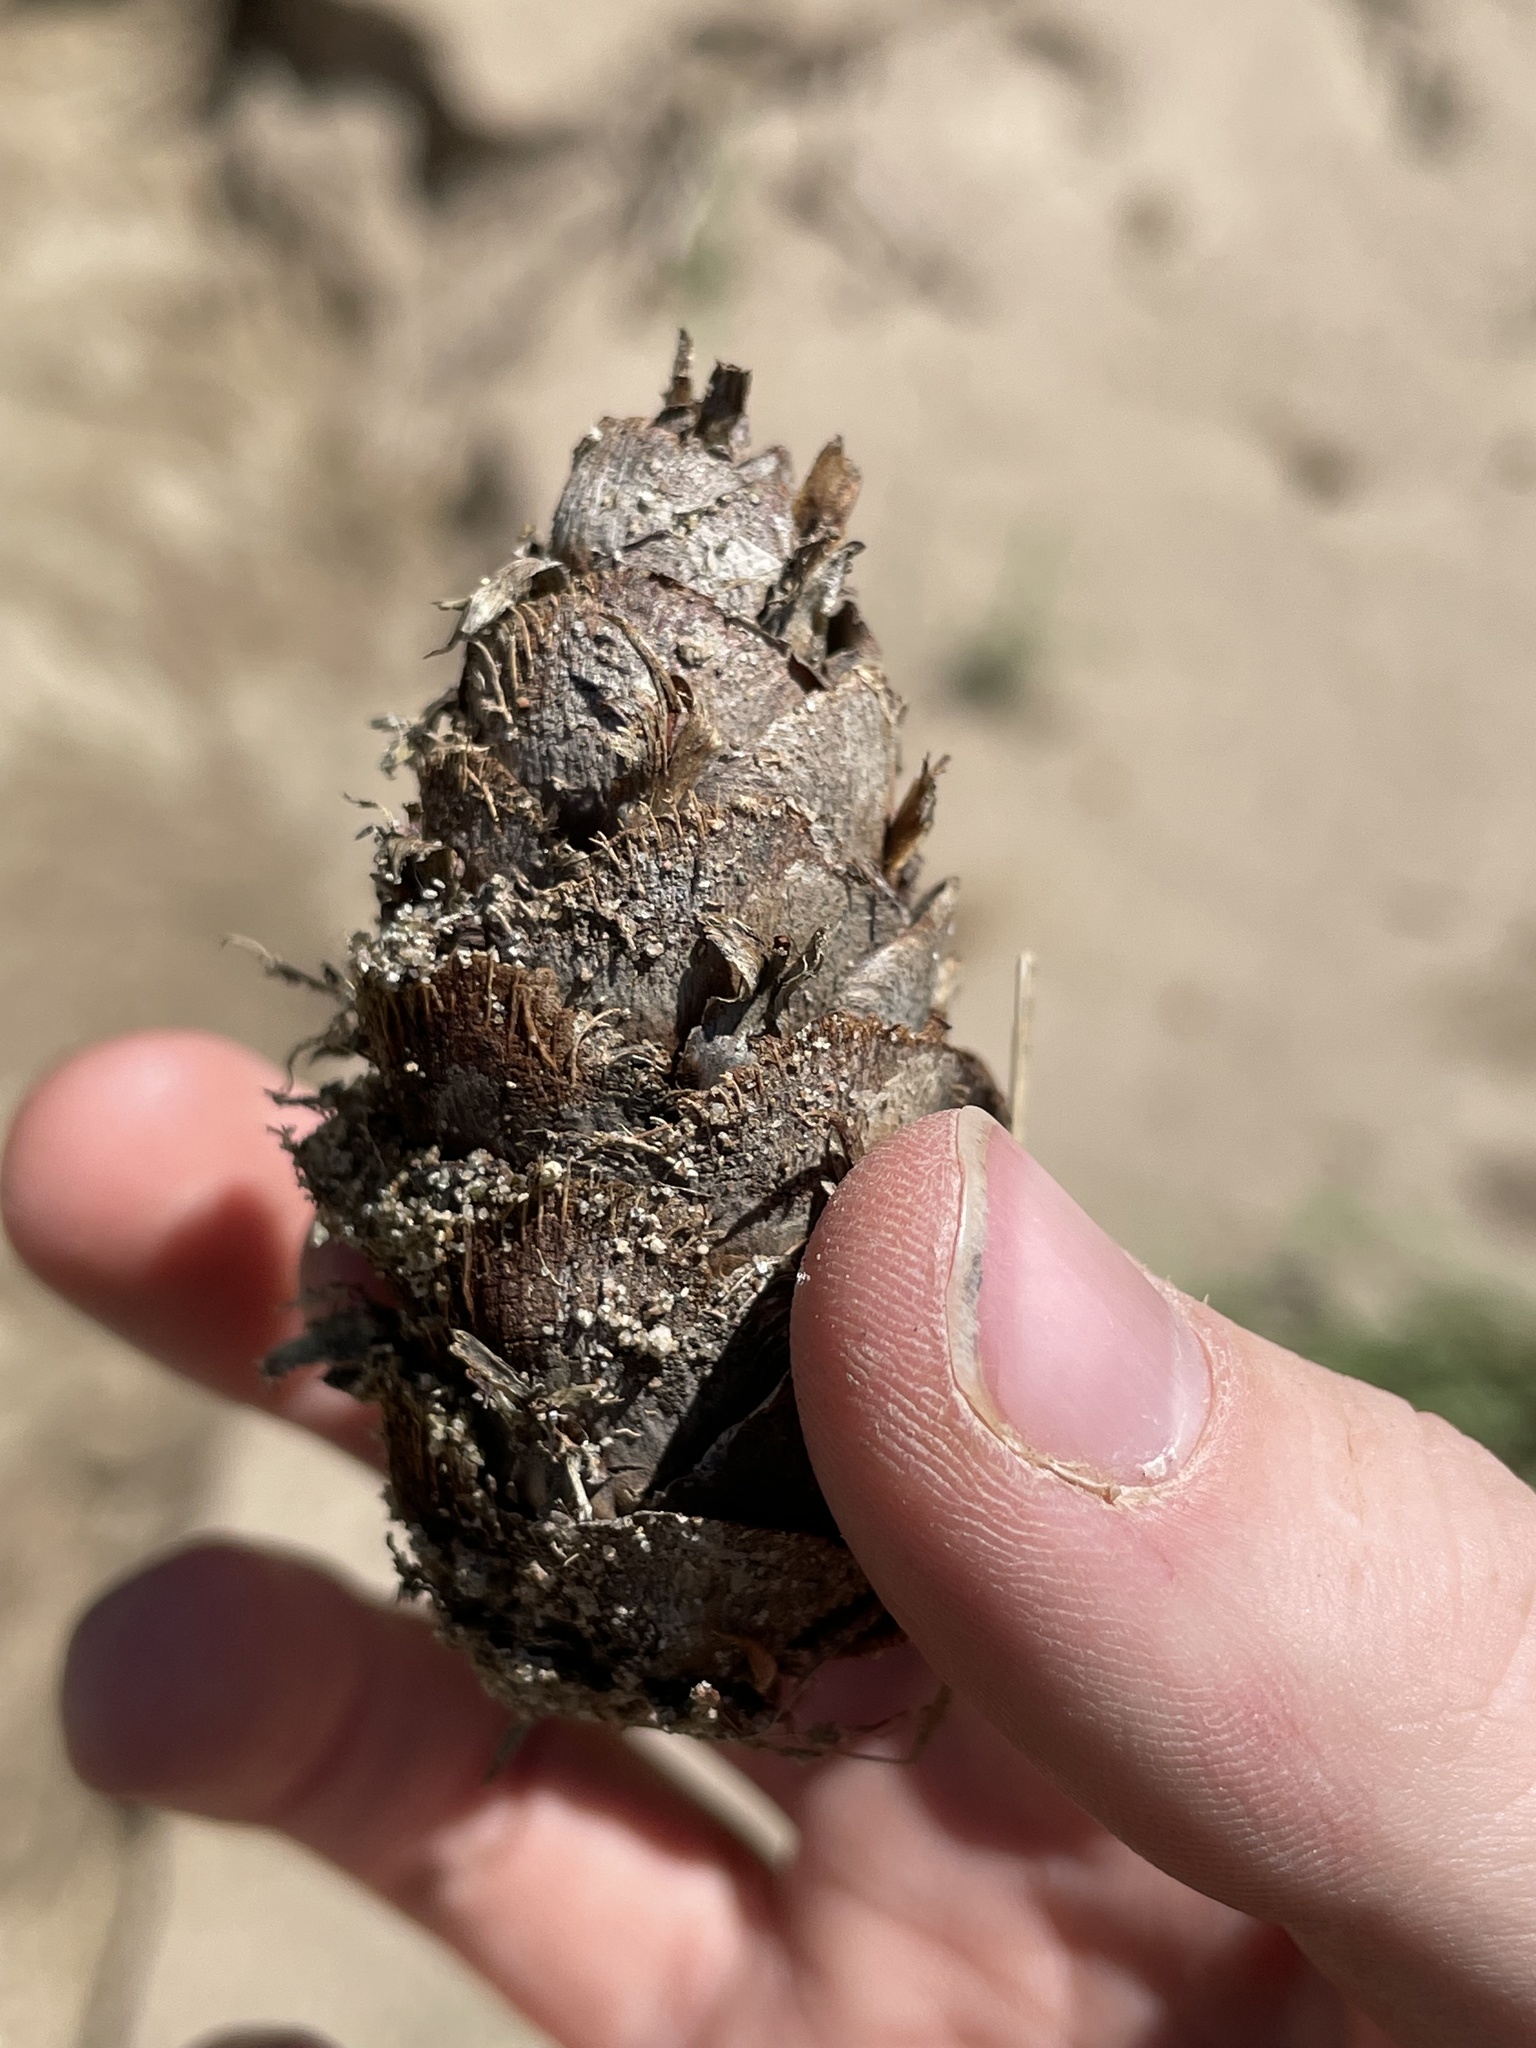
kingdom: Plantae
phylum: Tracheophyta
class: Pinopsida
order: Pinales
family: Pinaceae
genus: Pseudotsuga
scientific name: Pseudotsuga menziesii
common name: Douglas fir
